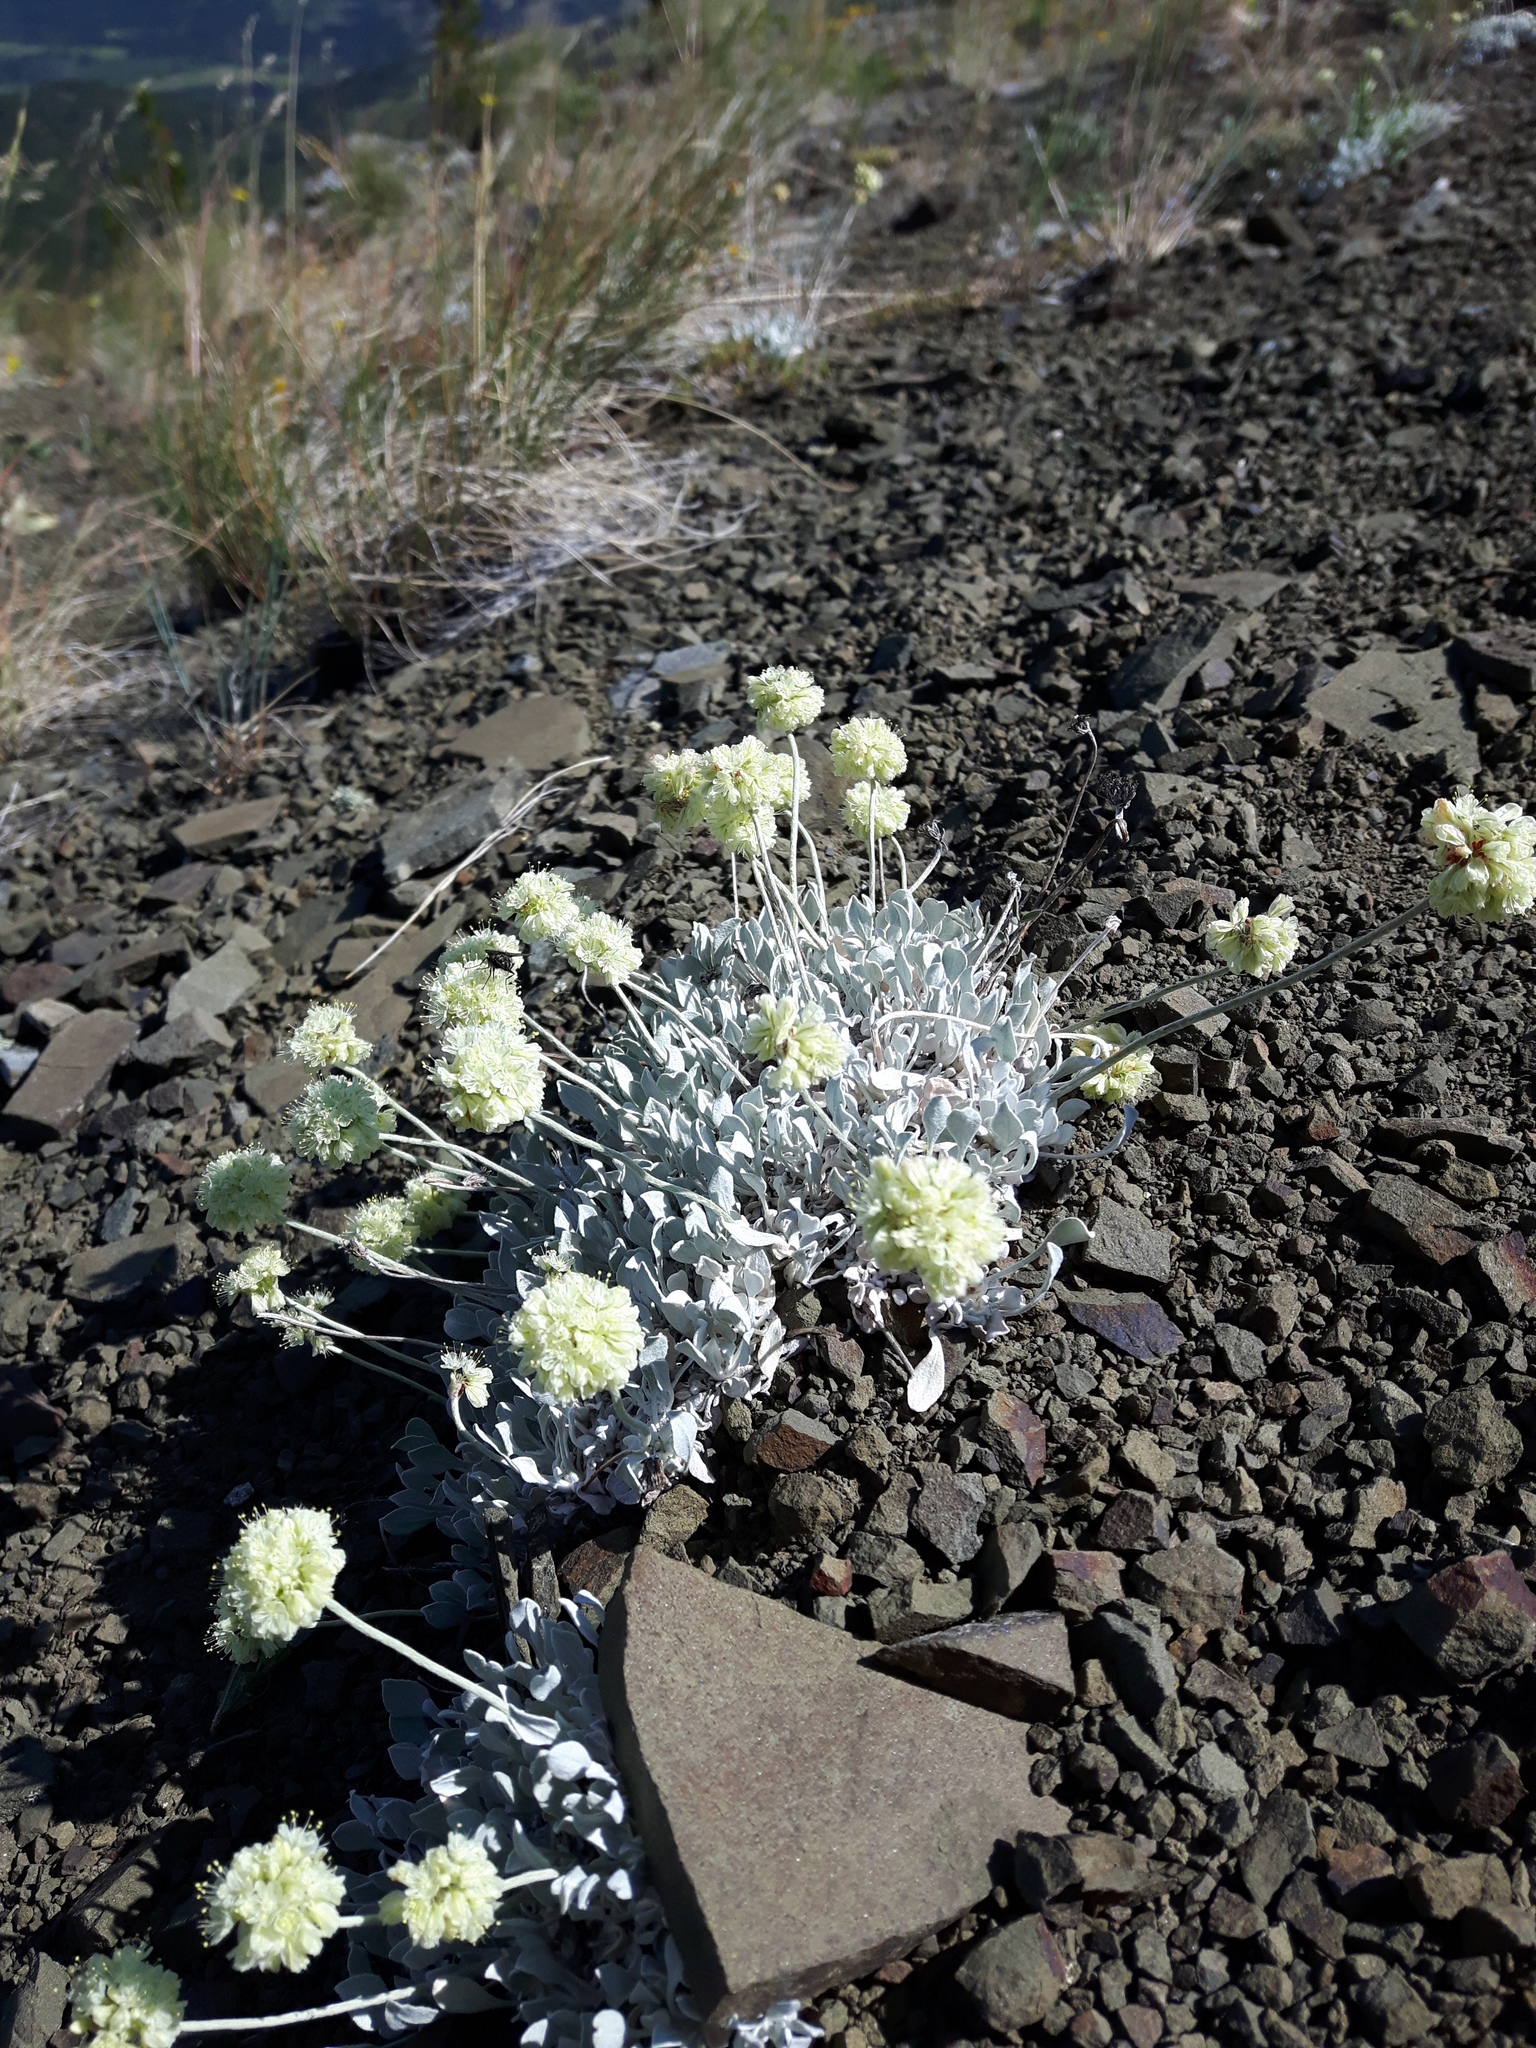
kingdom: Plantae
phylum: Tracheophyta
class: Magnoliopsida
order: Caryophyllales
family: Polygonaceae
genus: Eriogonum
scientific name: Eriogonum ovalifolium
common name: Cushion buckwheat
